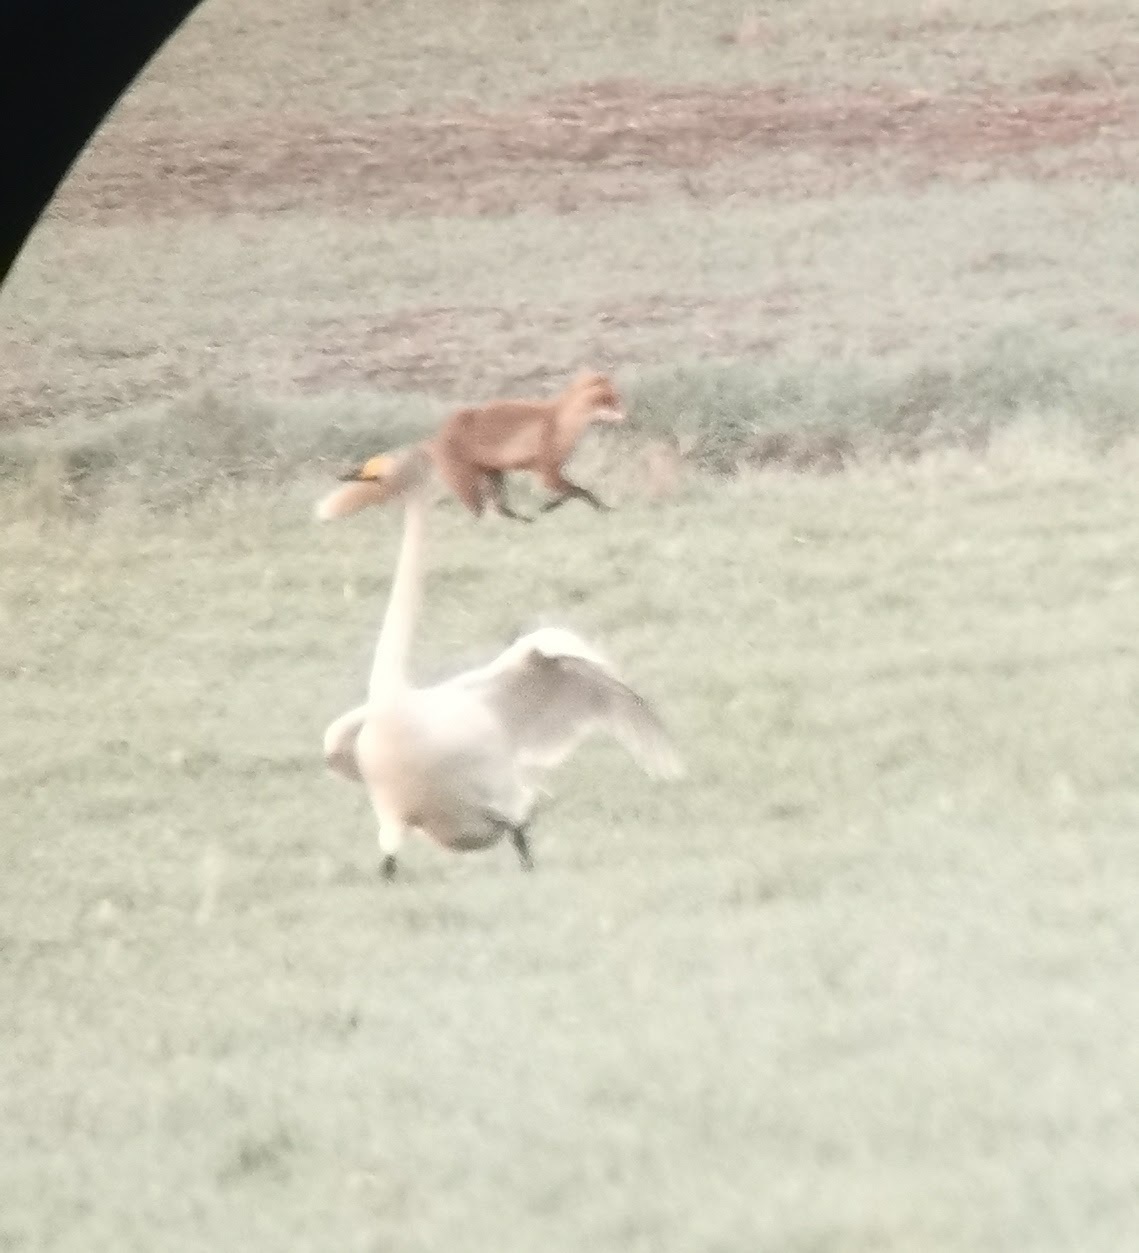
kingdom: Animalia
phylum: Chordata
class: Mammalia
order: Carnivora
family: Canidae
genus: Vulpes
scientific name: Vulpes vulpes
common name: Red fox
